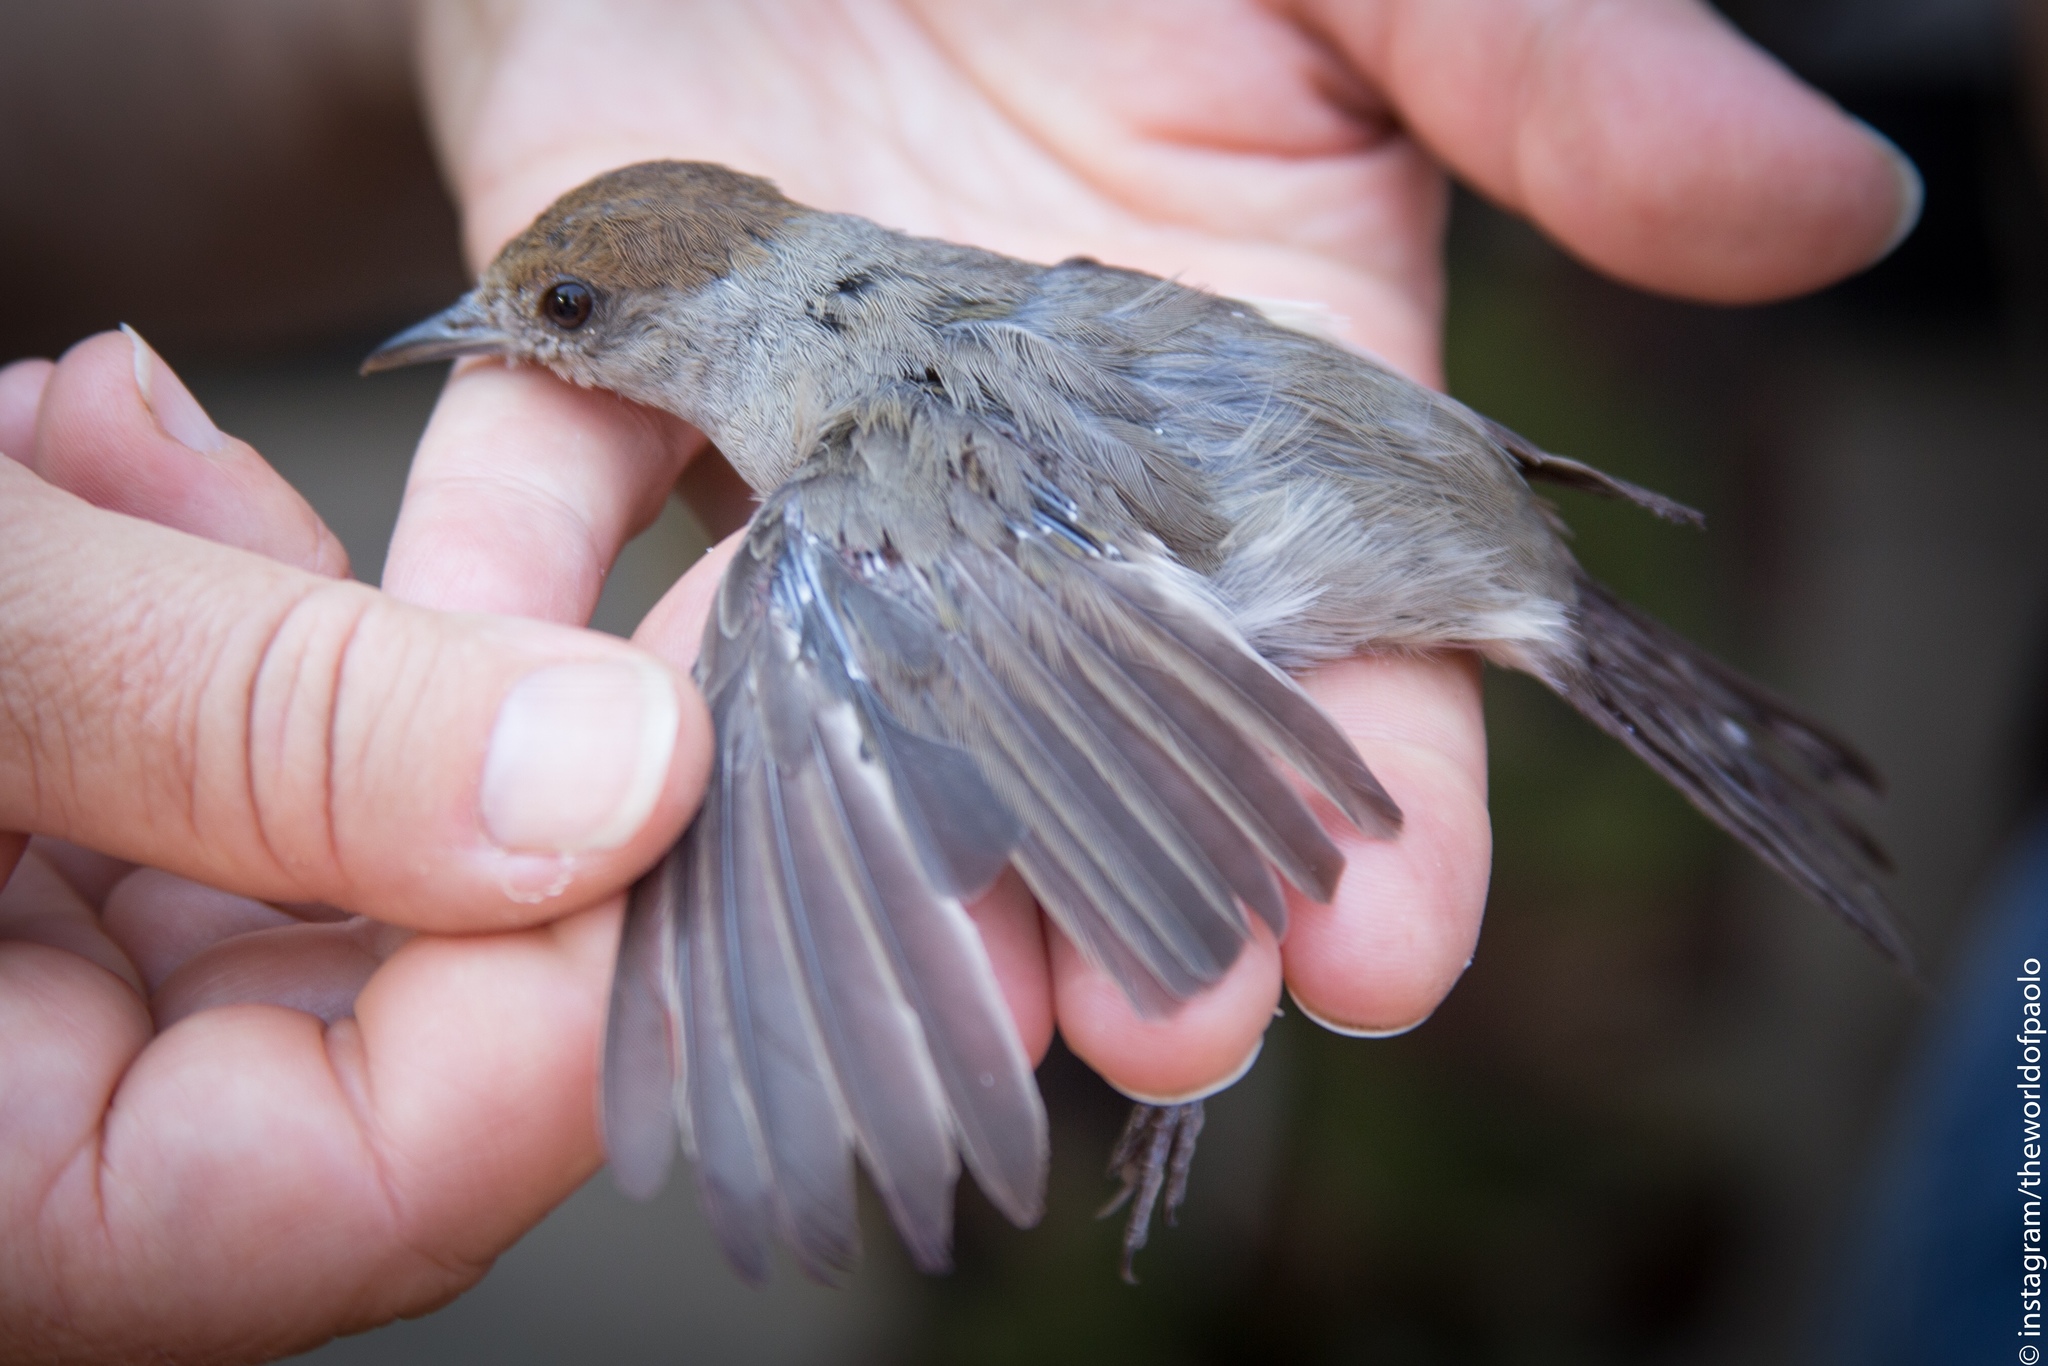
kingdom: Animalia
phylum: Chordata
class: Aves
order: Passeriformes
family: Sylviidae
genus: Sylvia
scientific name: Sylvia atricapilla
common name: Eurasian blackcap
